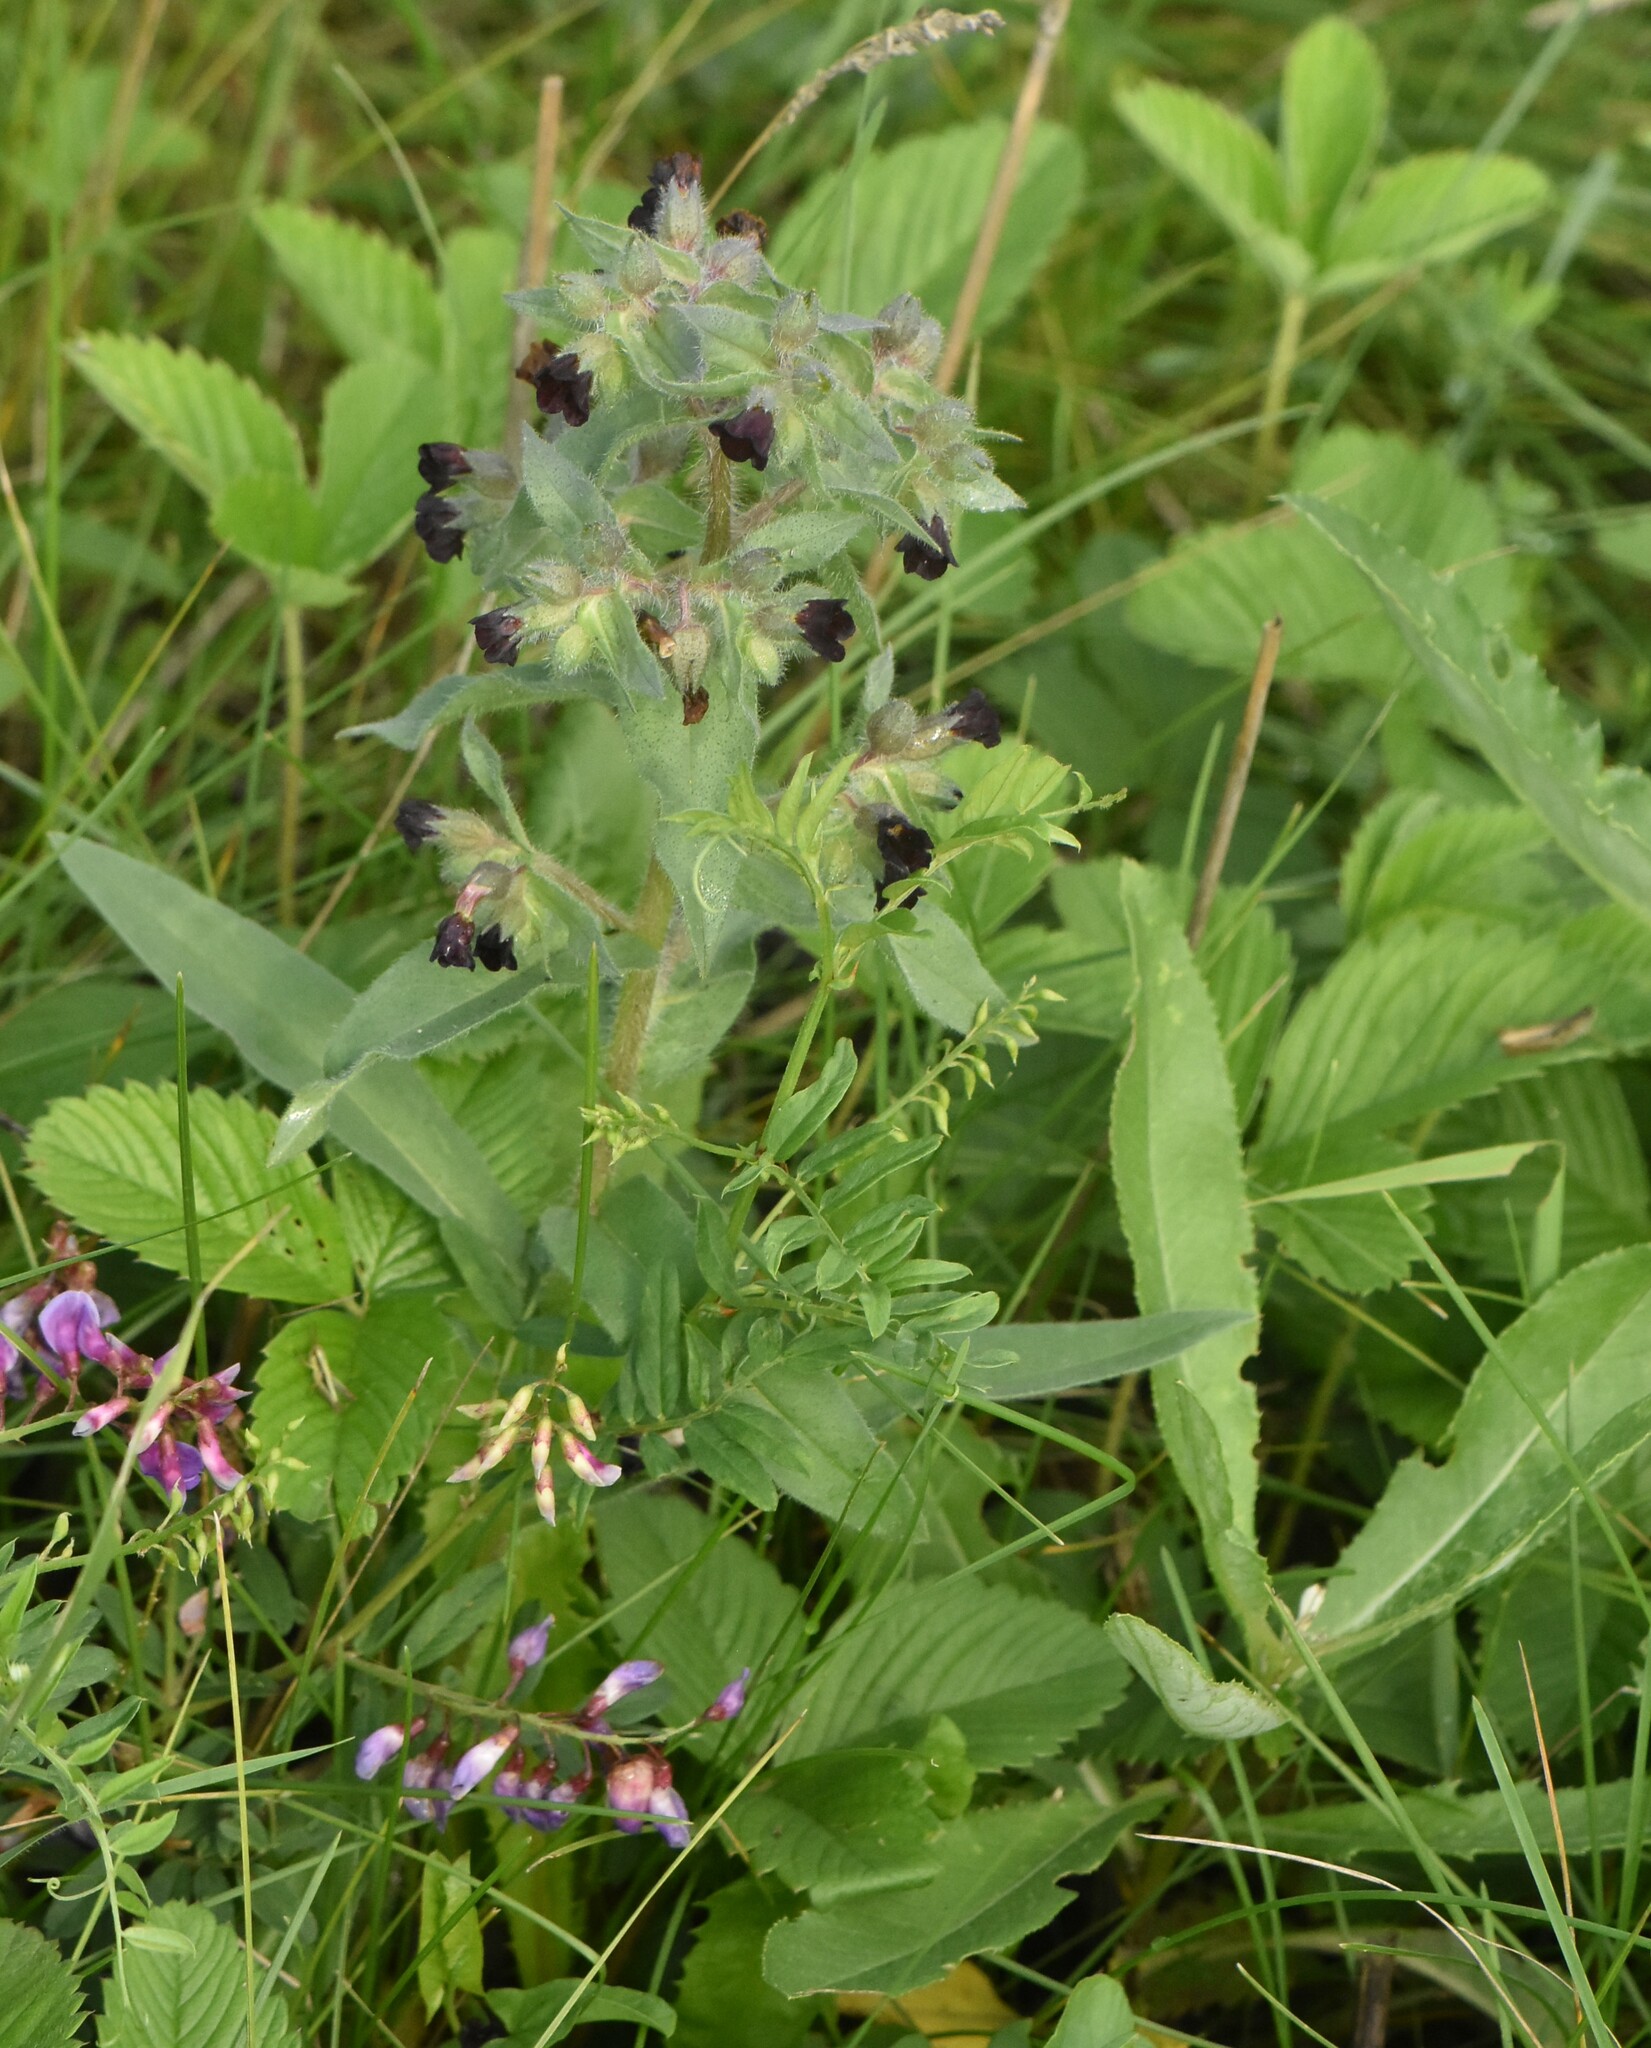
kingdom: Plantae
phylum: Tracheophyta
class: Magnoliopsida
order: Boraginales
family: Boraginaceae
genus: Nonea
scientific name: Nonea pulla
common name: Brown nonea
